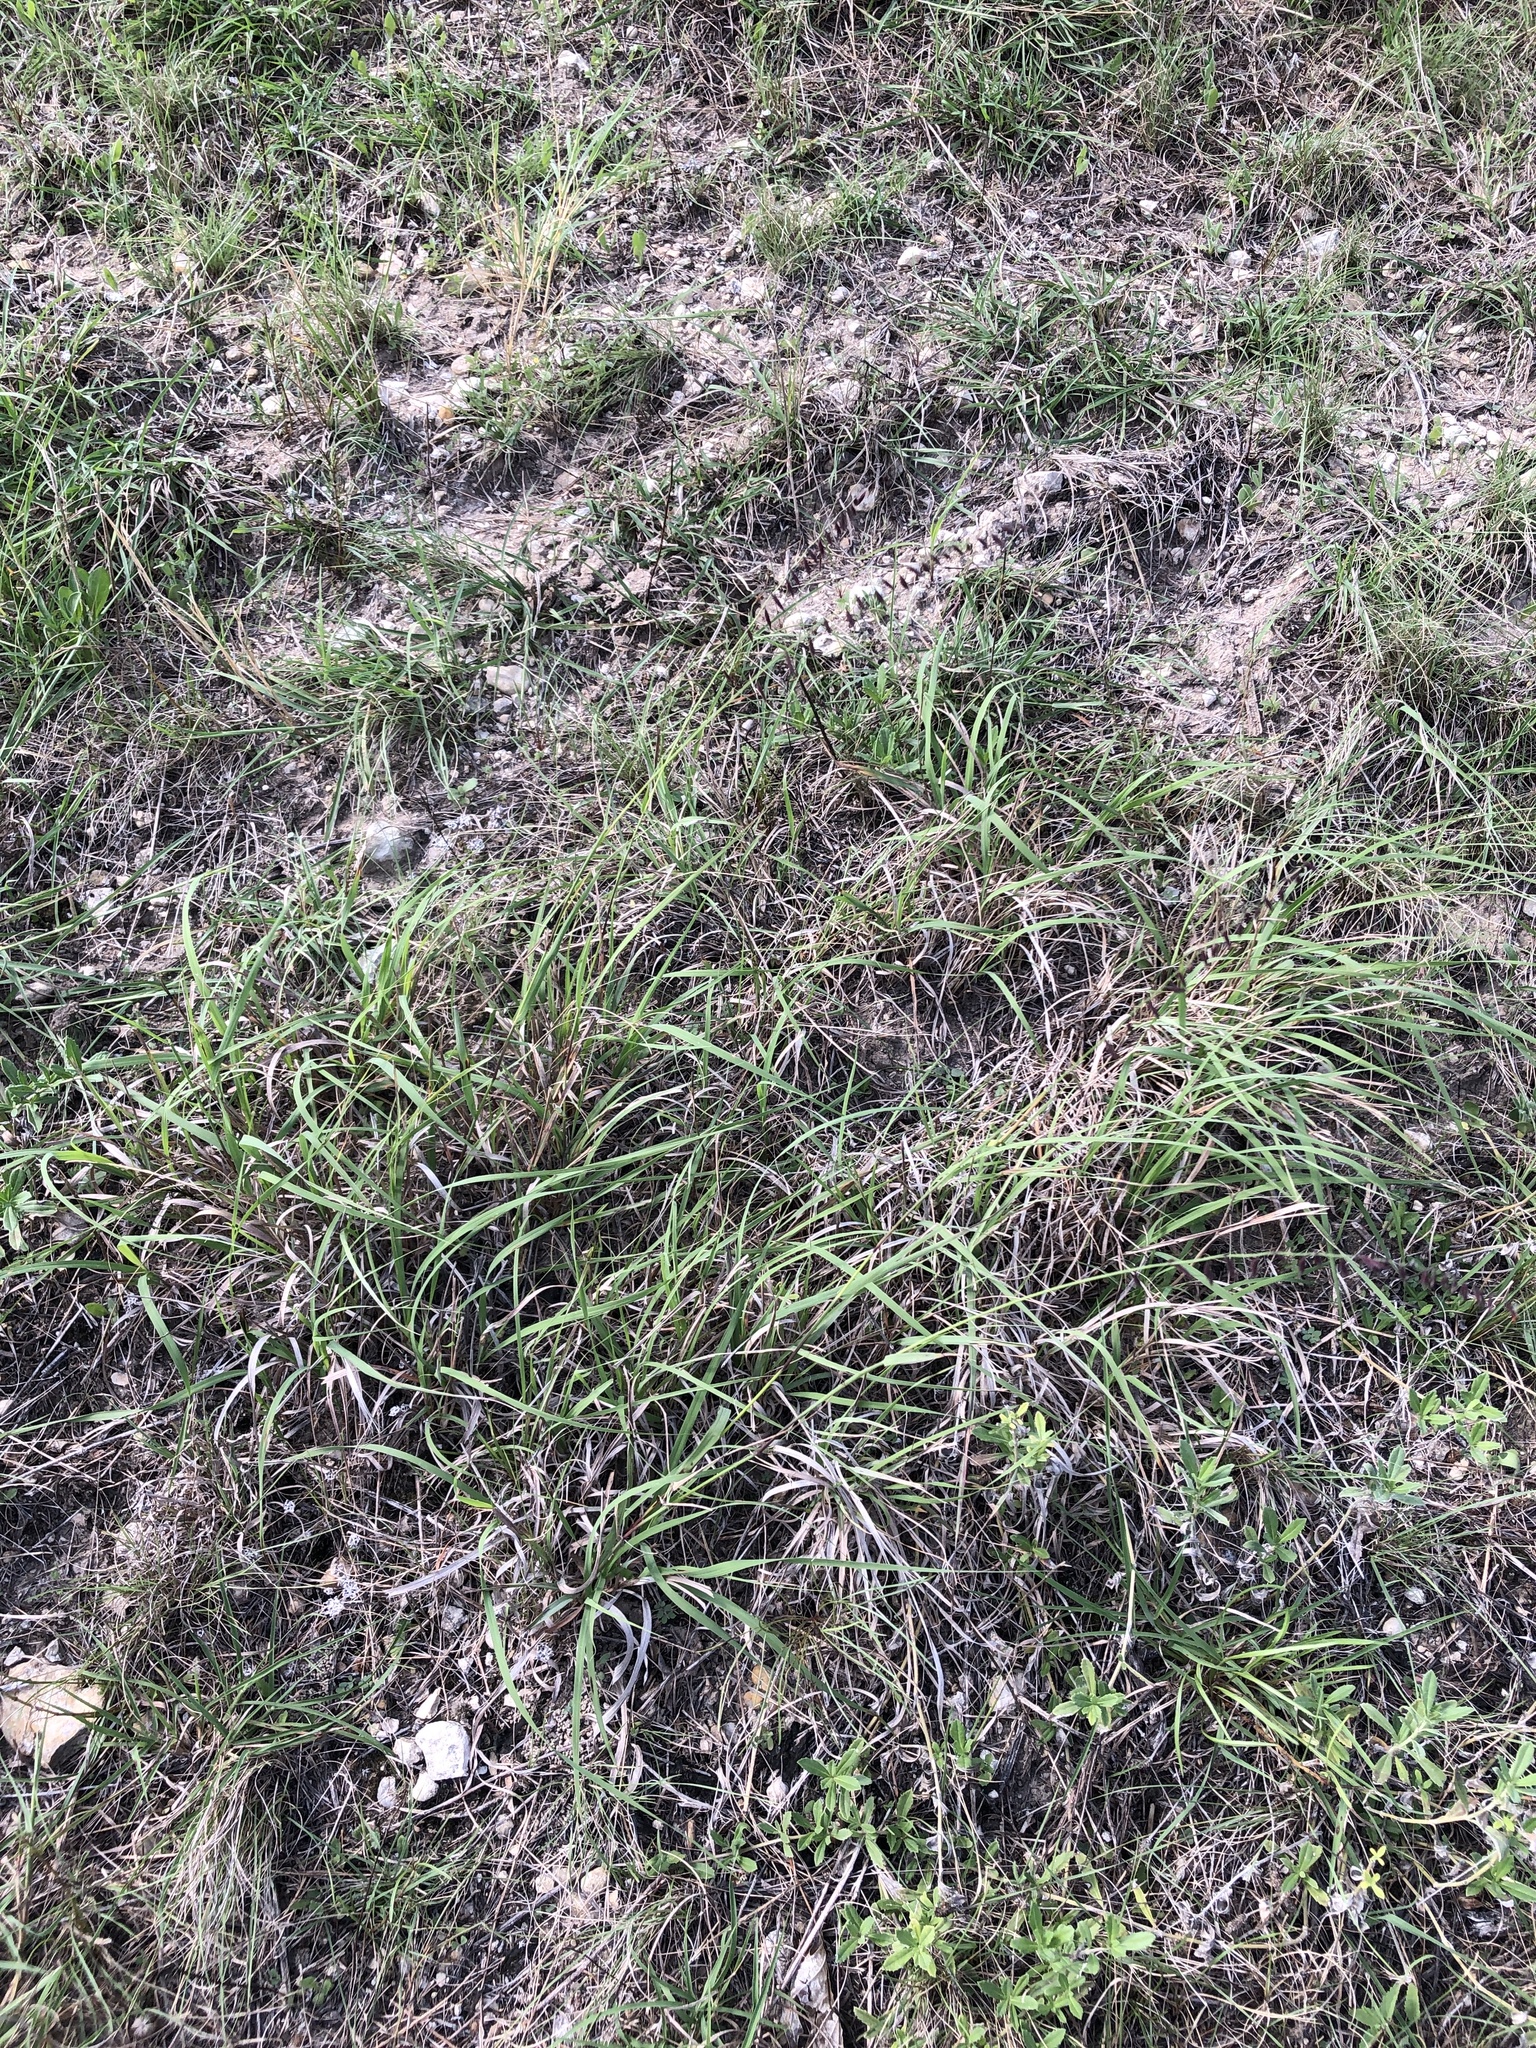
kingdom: Plantae
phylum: Tracheophyta
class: Liliopsida
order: Poales
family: Poaceae
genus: Bouteloua
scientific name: Bouteloua curtipendula
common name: Side-oats grama
